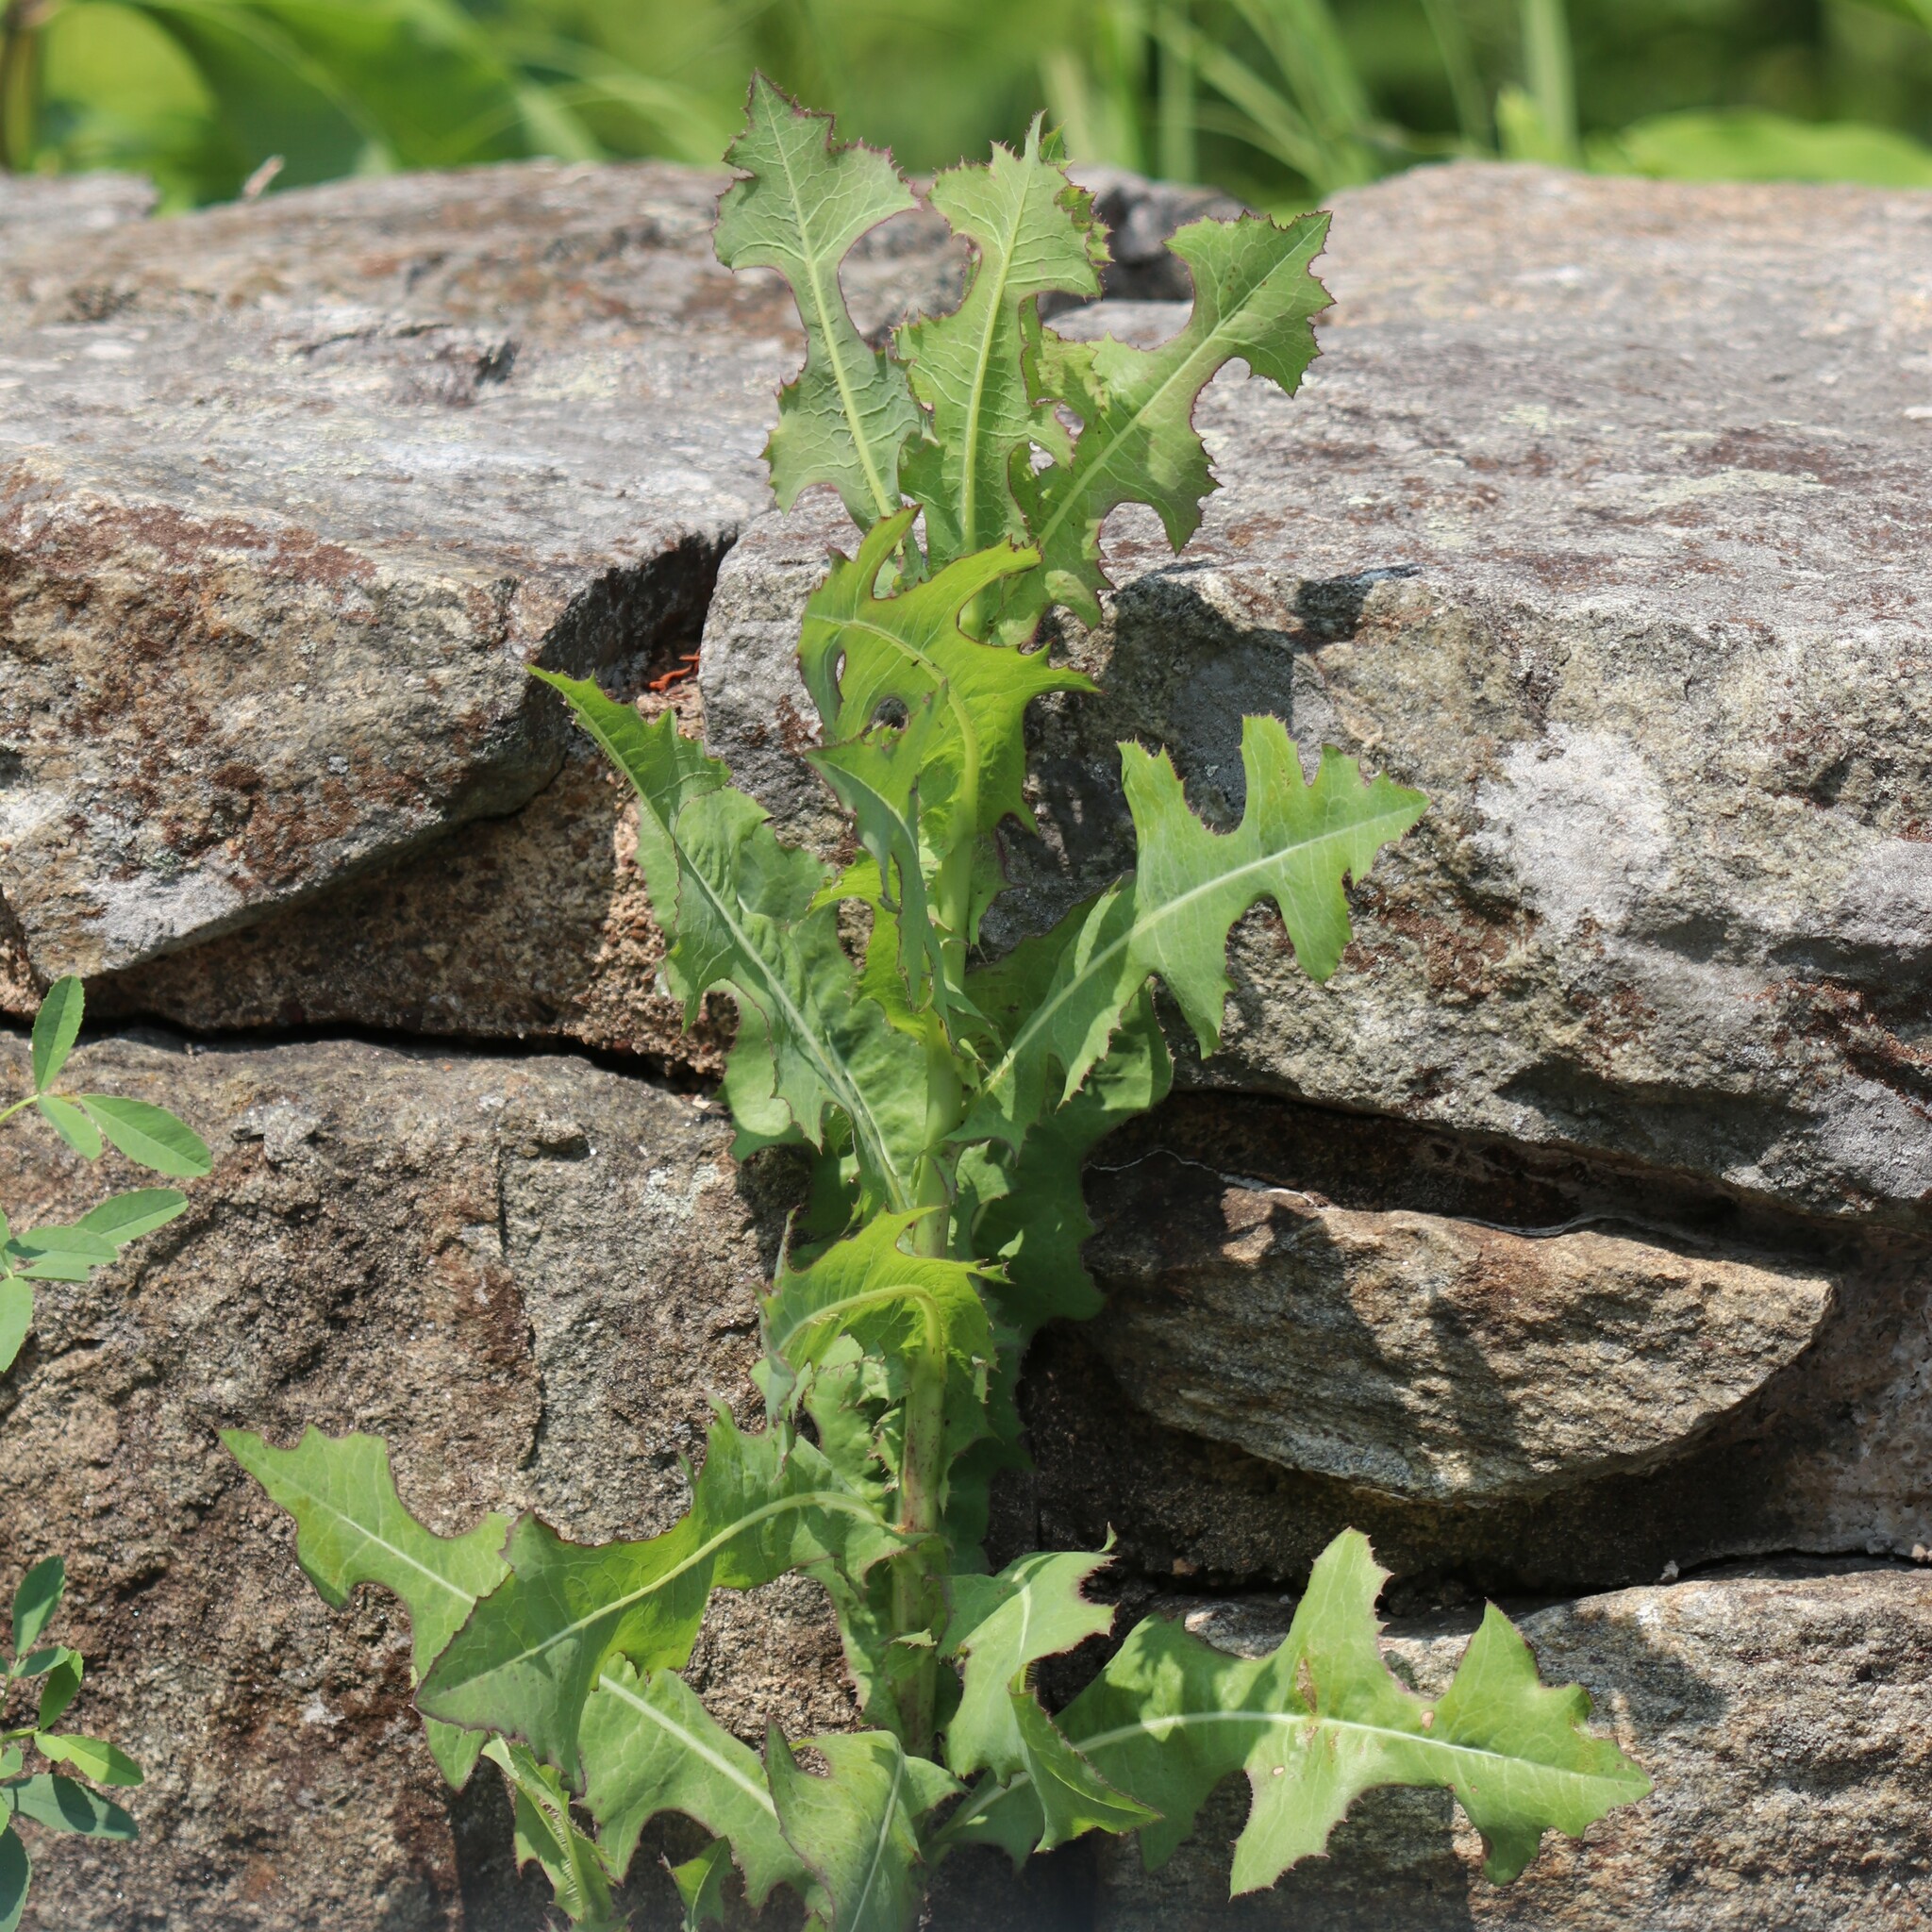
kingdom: Plantae
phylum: Tracheophyta
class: Magnoliopsida
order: Asterales
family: Asteraceae
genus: Lactuca
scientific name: Lactuca serriola
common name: Prickly lettuce
